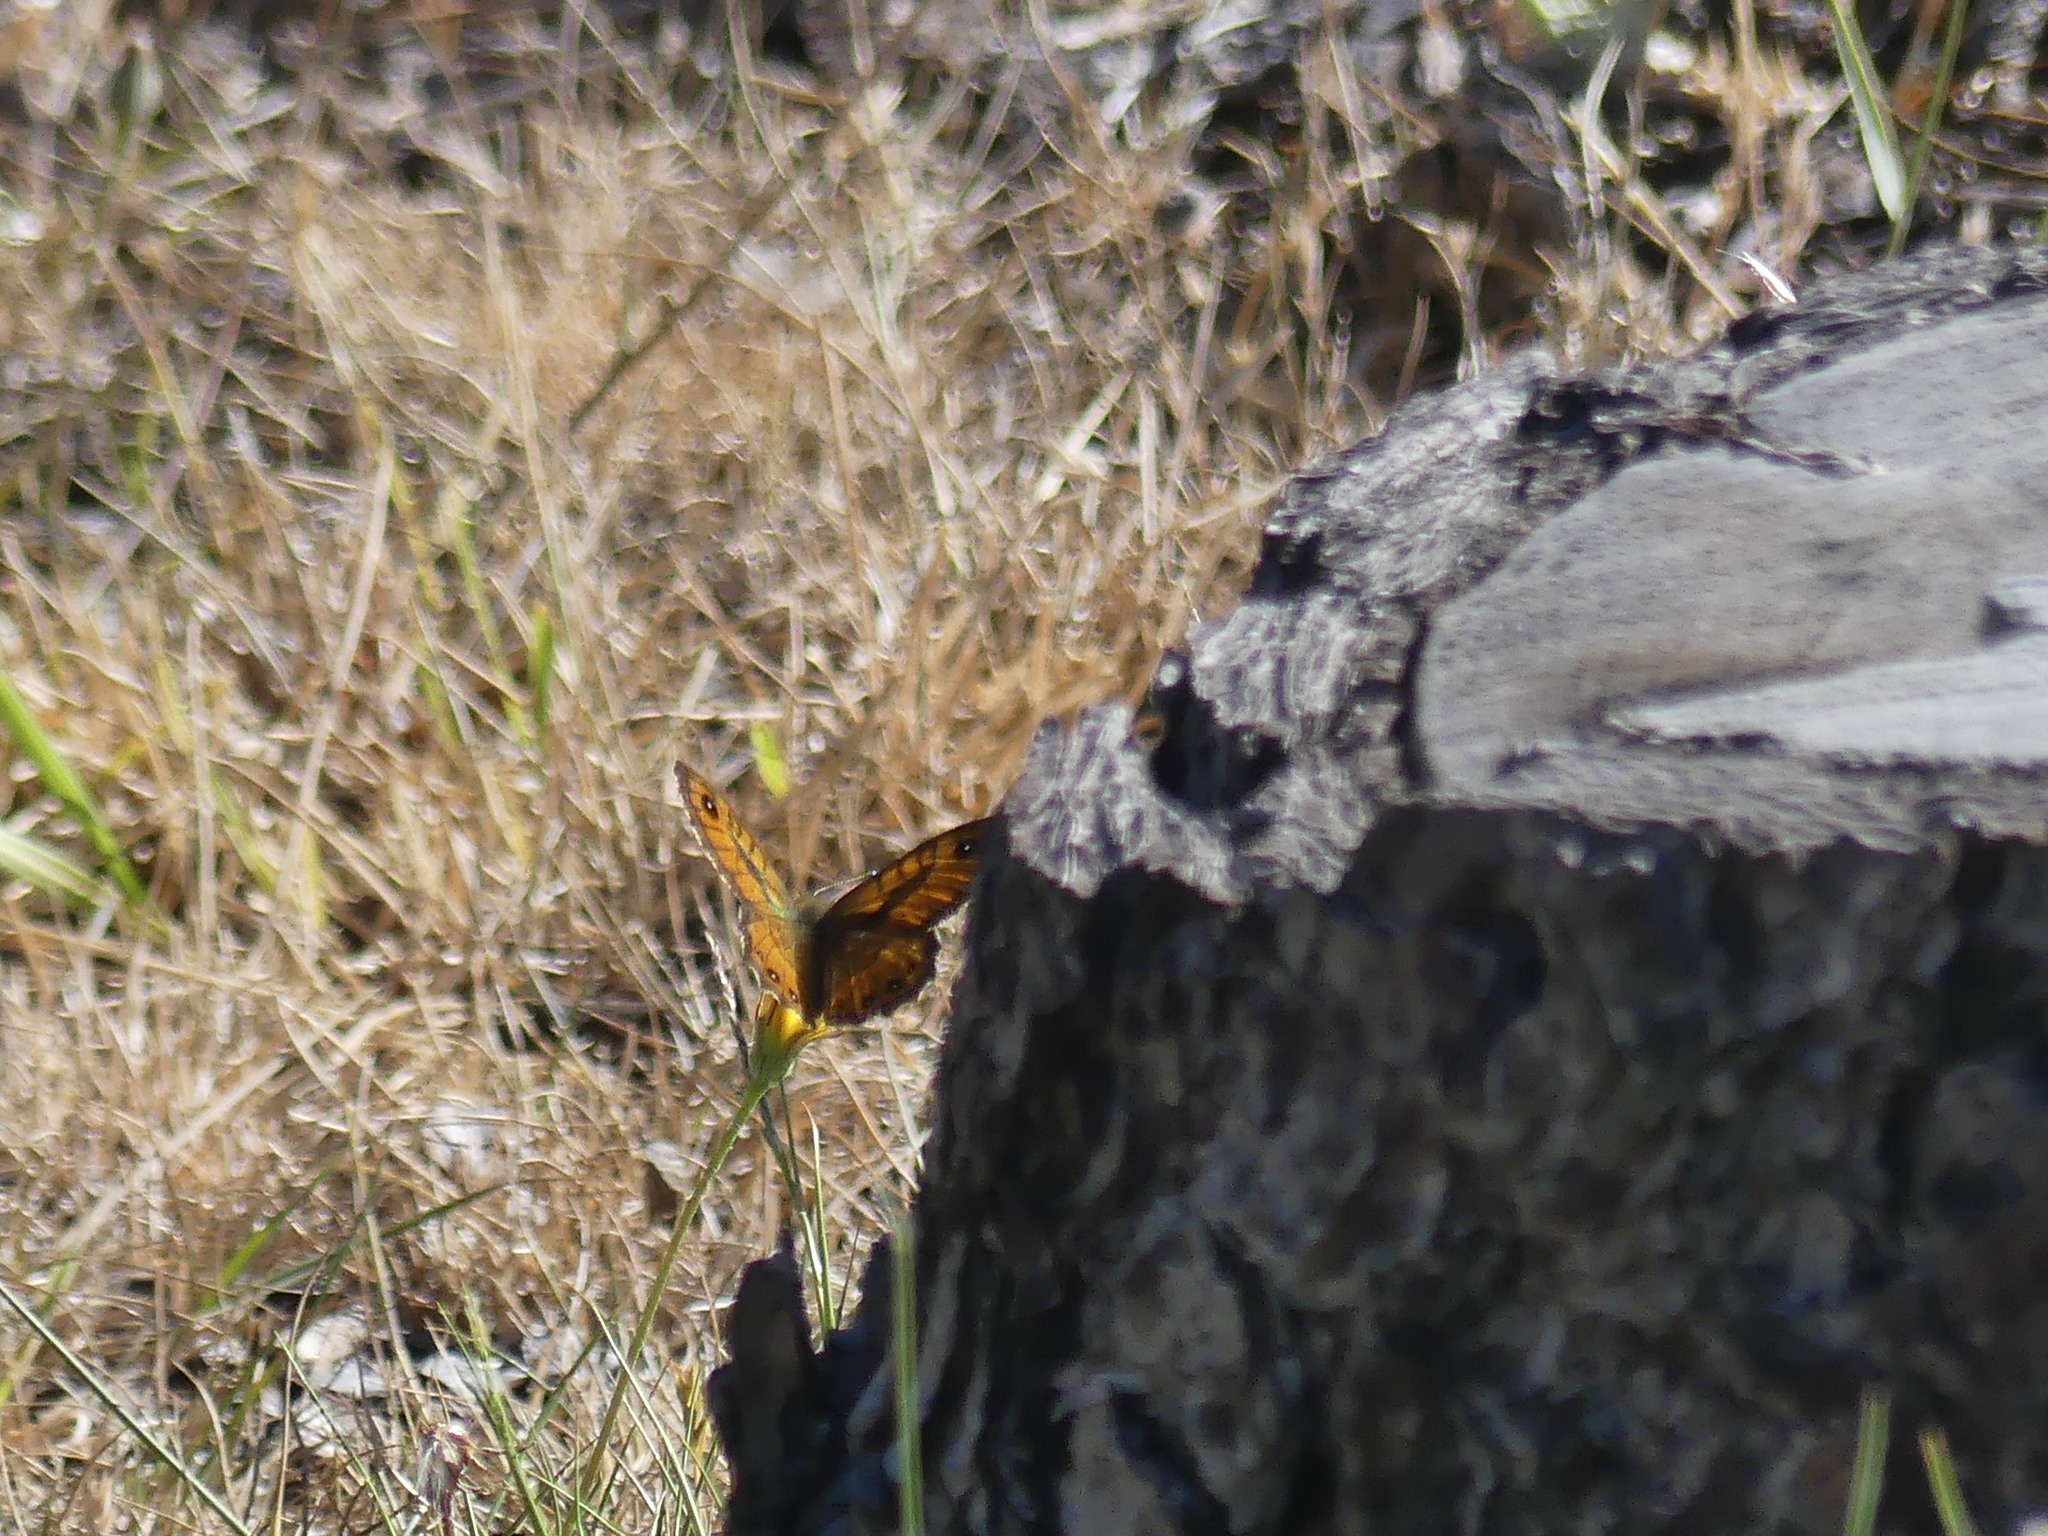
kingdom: Animalia
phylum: Arthropoda
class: Insecta
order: Lepidoptera
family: Nymphalidae
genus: Pararge
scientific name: Pararge Lasiommata paramegaera
